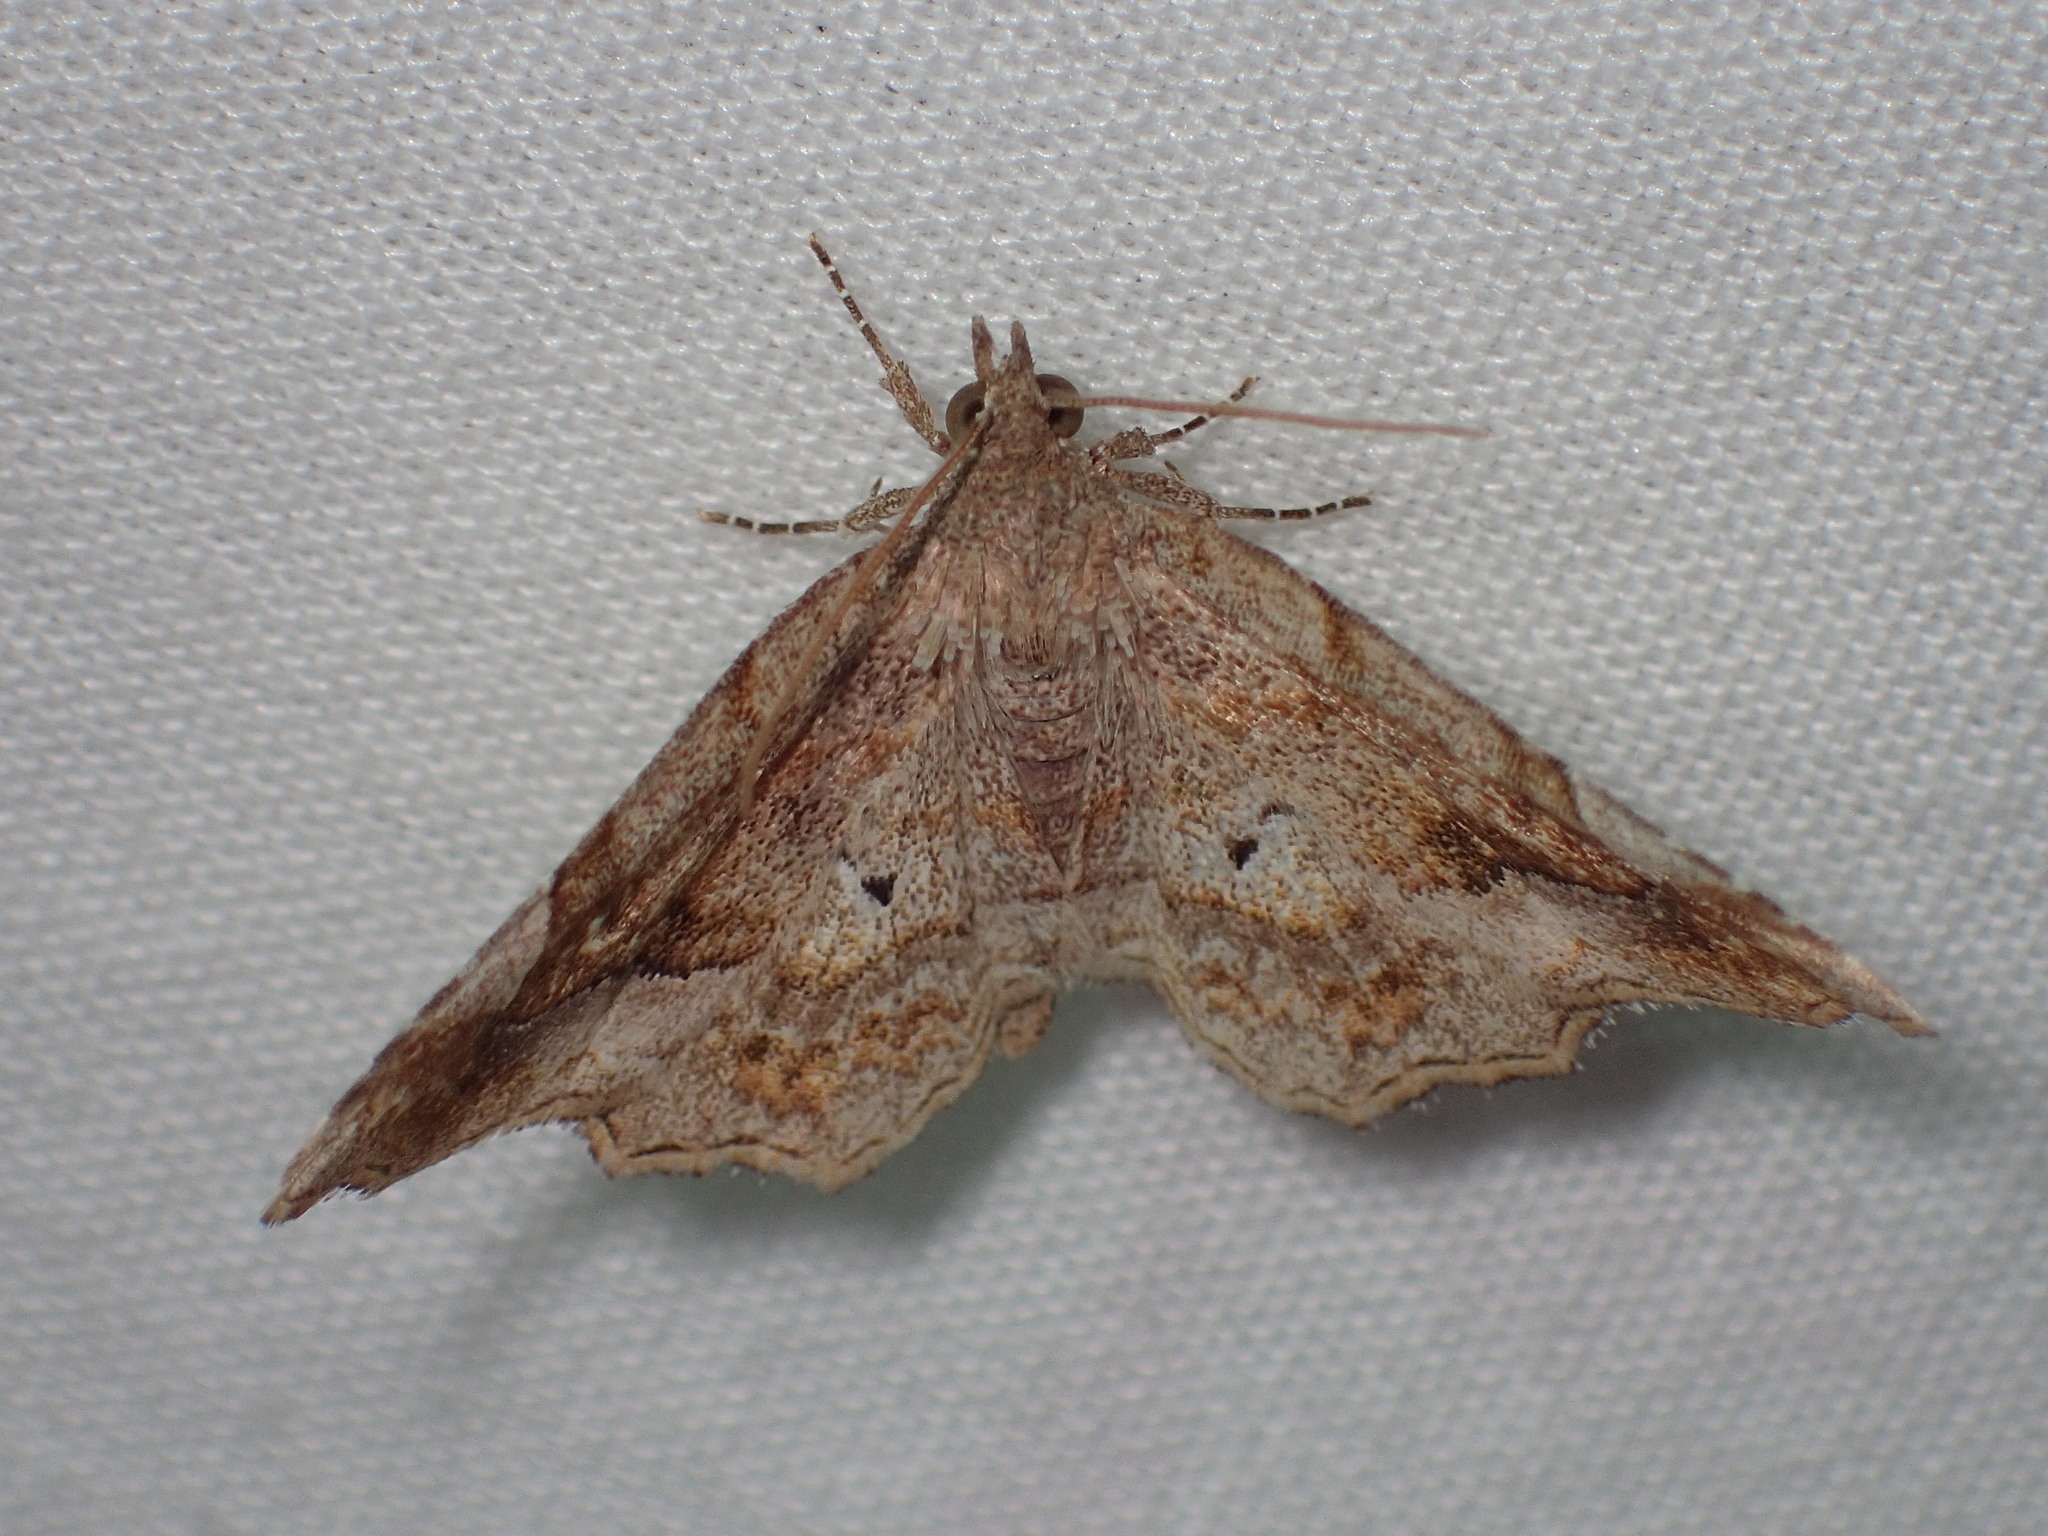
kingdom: Animalia
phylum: Arthropoda
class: Insecta
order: Lepidoptera
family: Erebidae
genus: Pangrapta
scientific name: Pangrapta decoralis
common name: Decorated owlet
